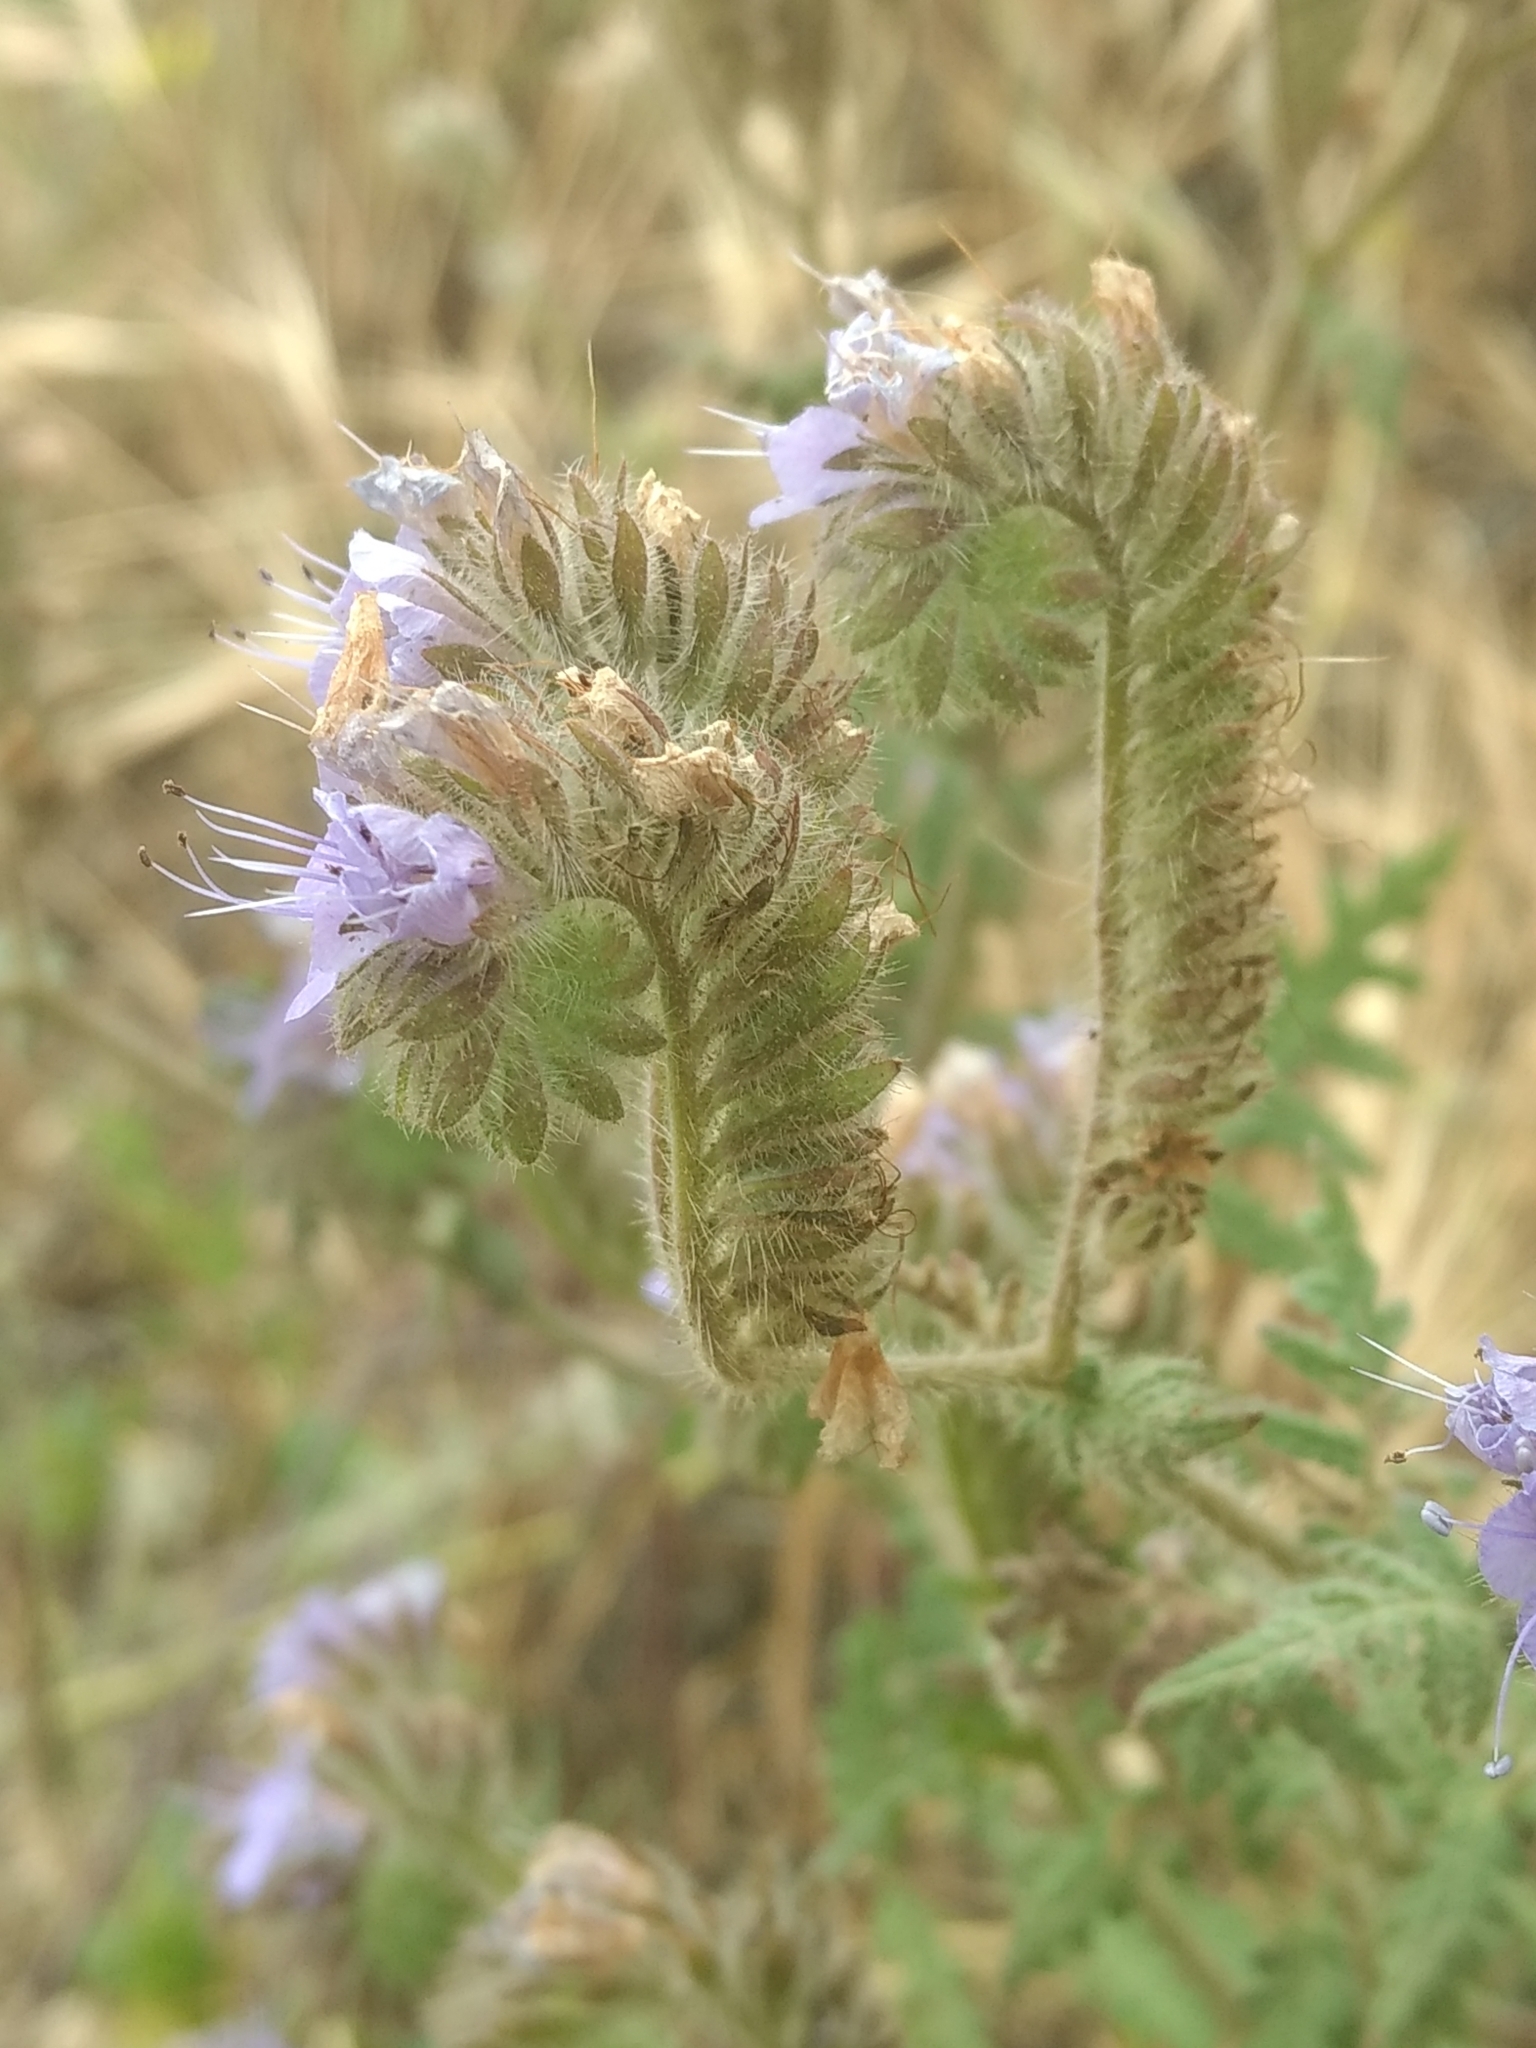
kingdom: Plantae
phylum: Tracheophyta
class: Magnoliopsida
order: Boraginales
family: Hydrophyllaceae
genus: Phacelia
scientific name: Phacelia distans
